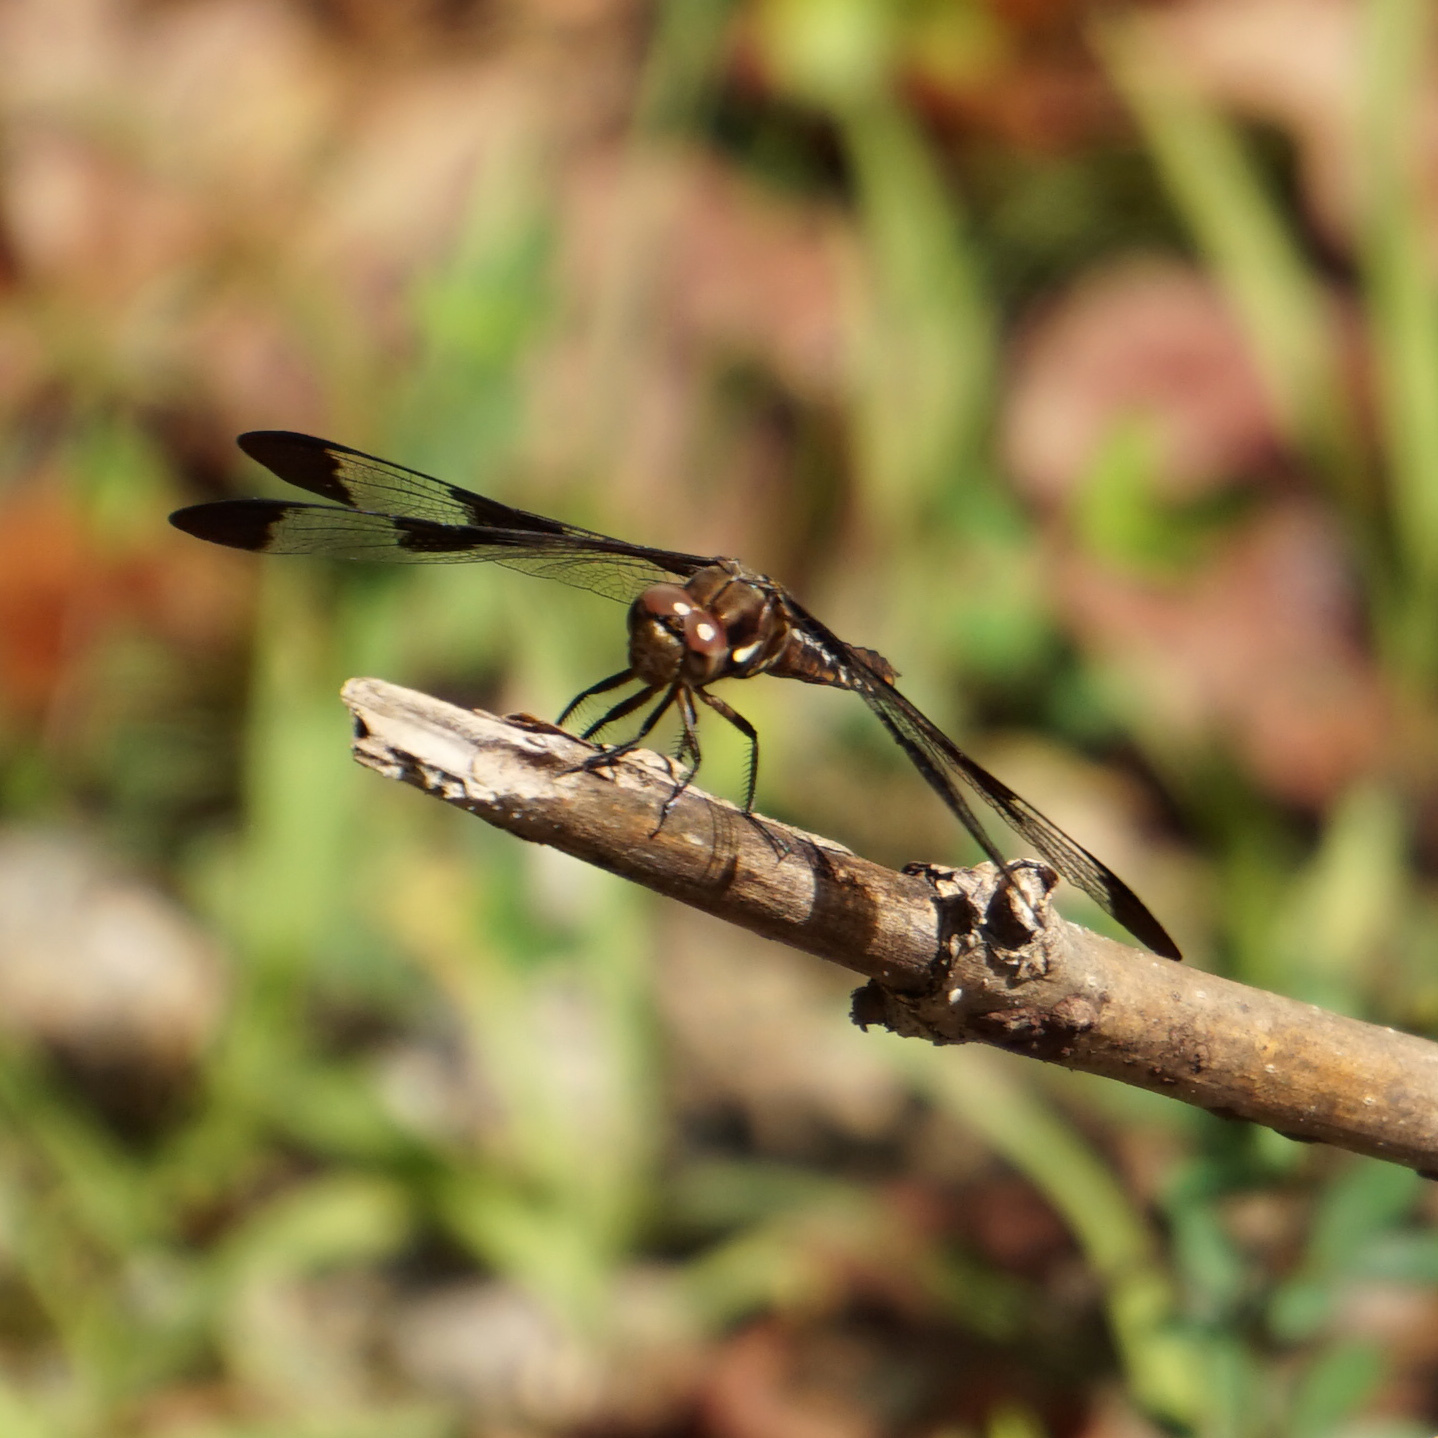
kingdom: Animalia
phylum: Arthropoda
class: Insecta
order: Odonata
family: Libellulidae
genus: Plathemis
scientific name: Plathemis lydia
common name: Common whitetail
